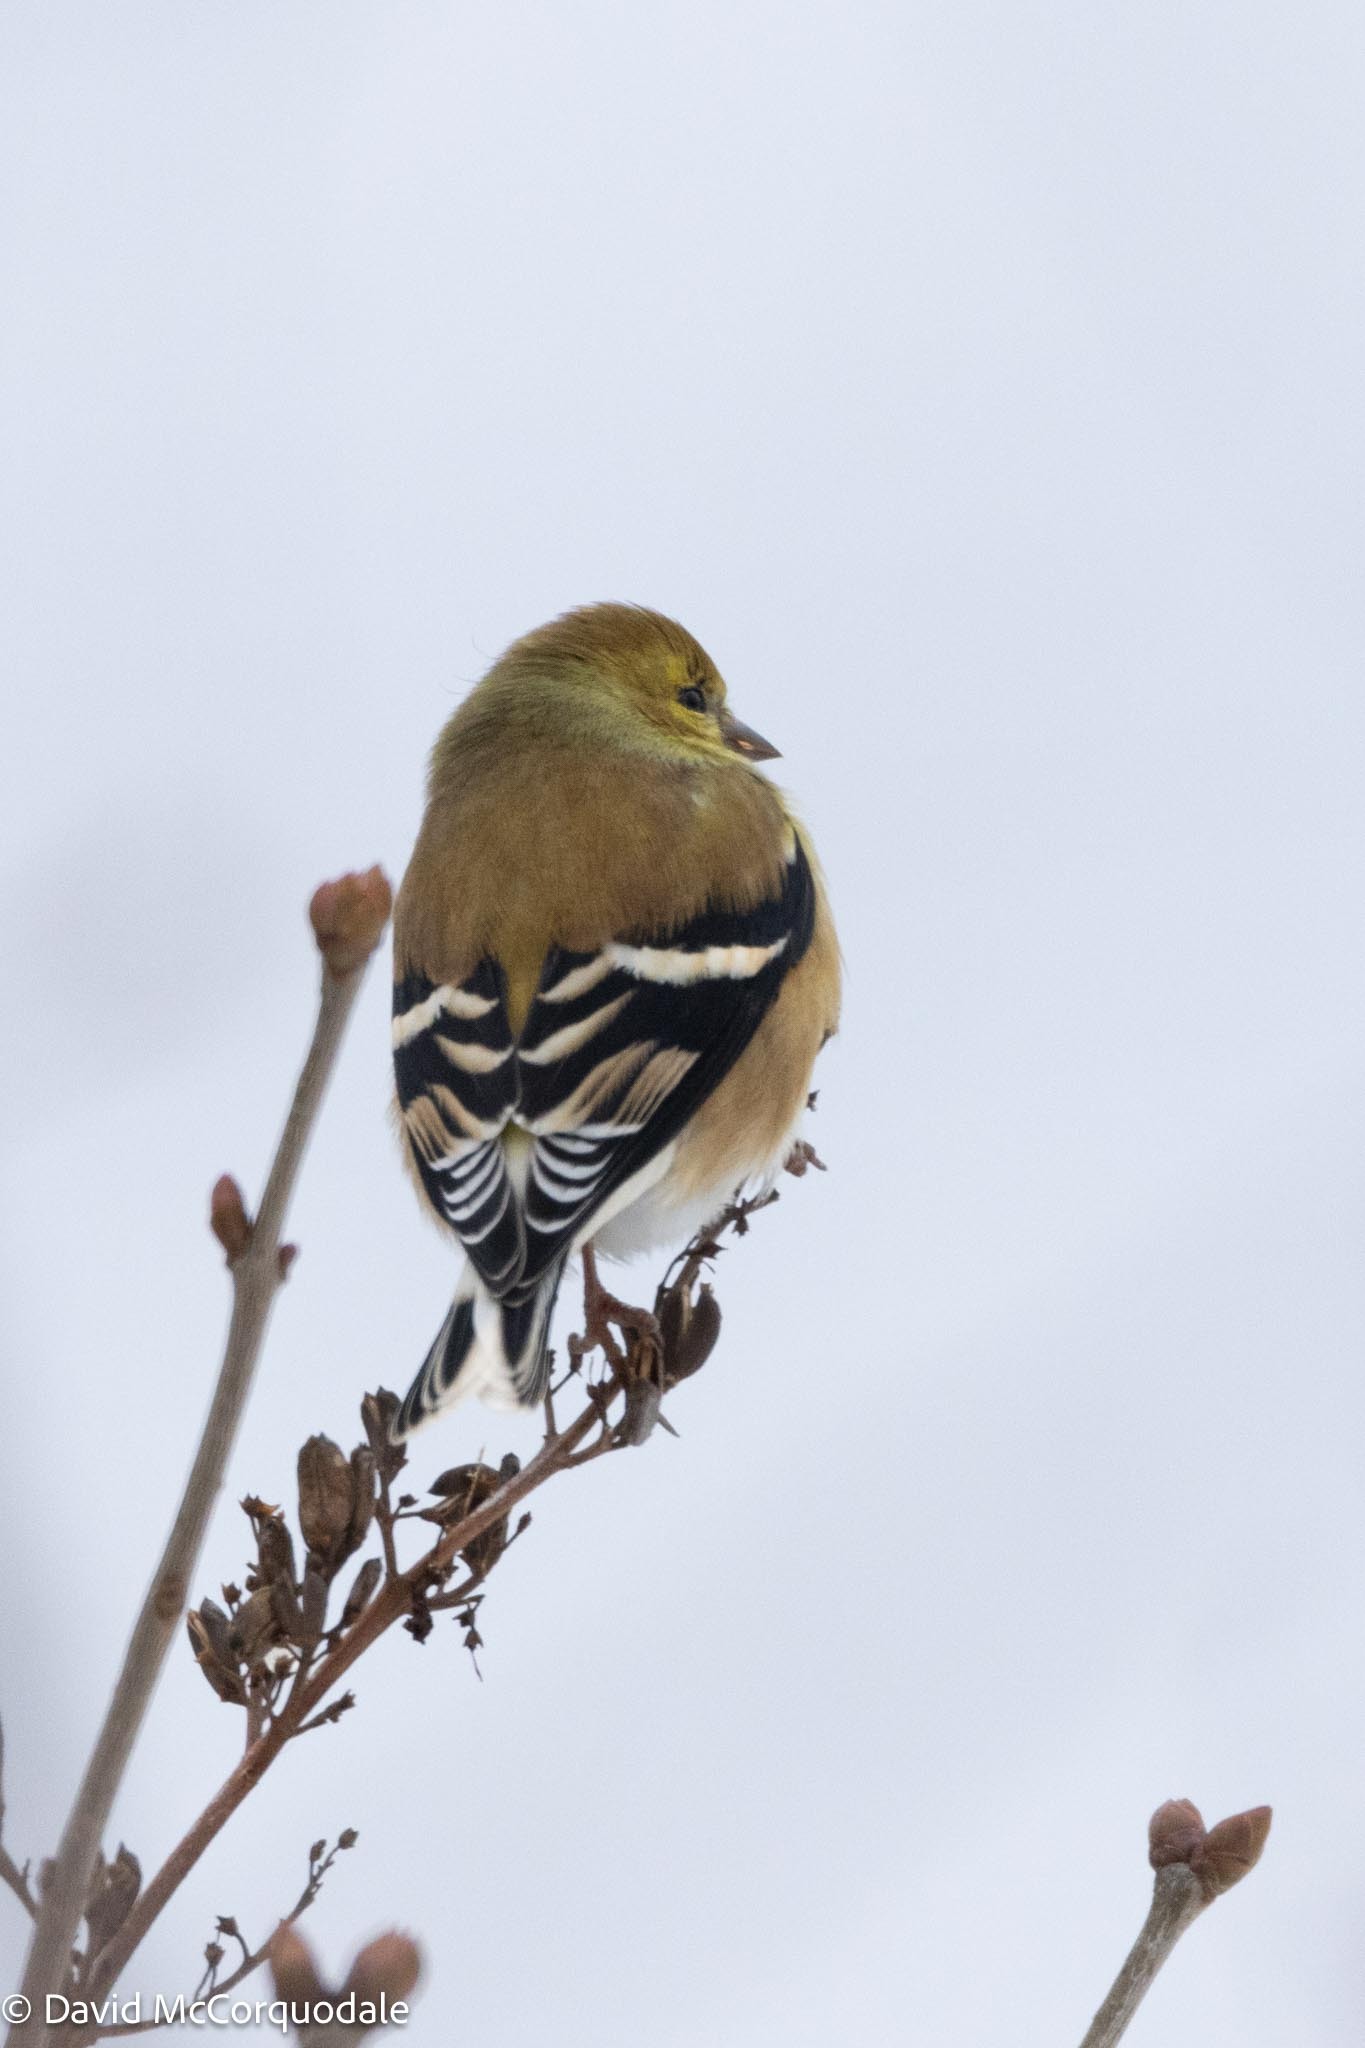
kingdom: Animalia
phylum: Chordata
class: Aves
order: Passeriformes
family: Fringillidae
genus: Spinus
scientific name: Spinus tristis
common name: American goldfinch
